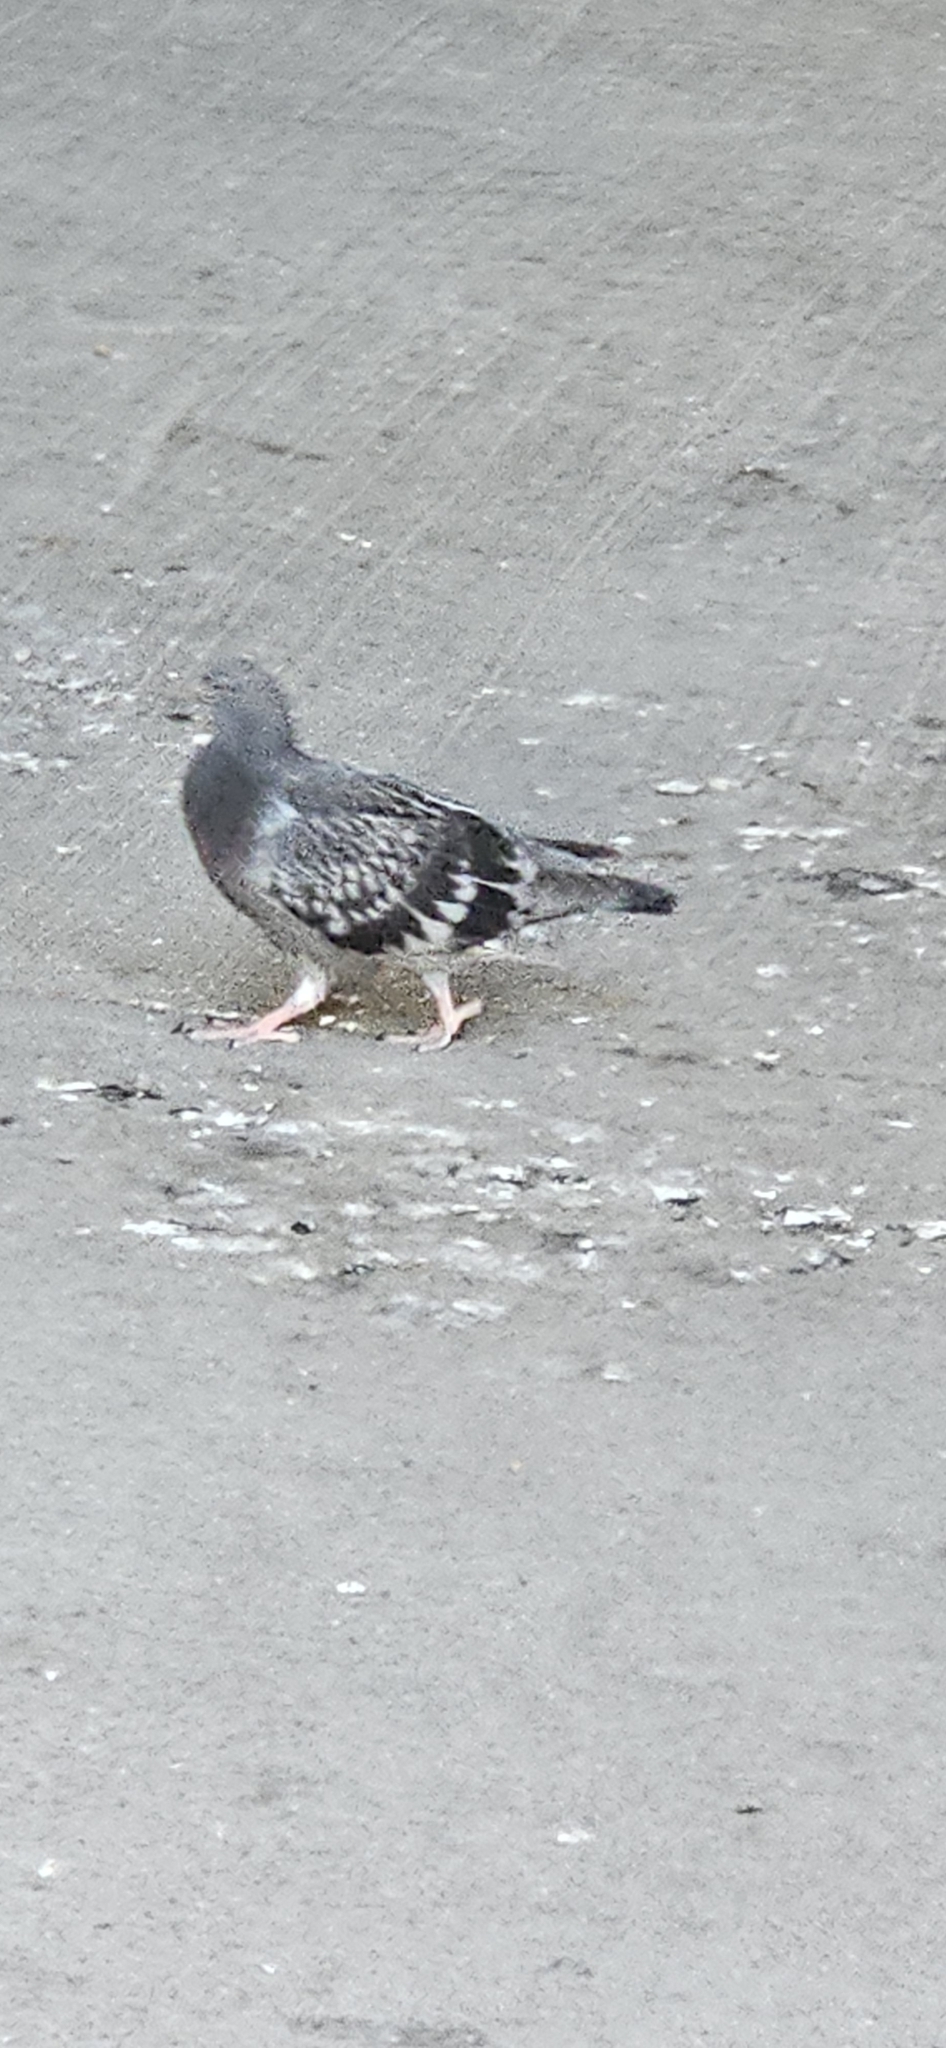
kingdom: Animalia
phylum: Chordata
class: Aves
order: Columbiformes
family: Columbidae
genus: Columba
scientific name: Columba livia
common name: Rock pigeon
